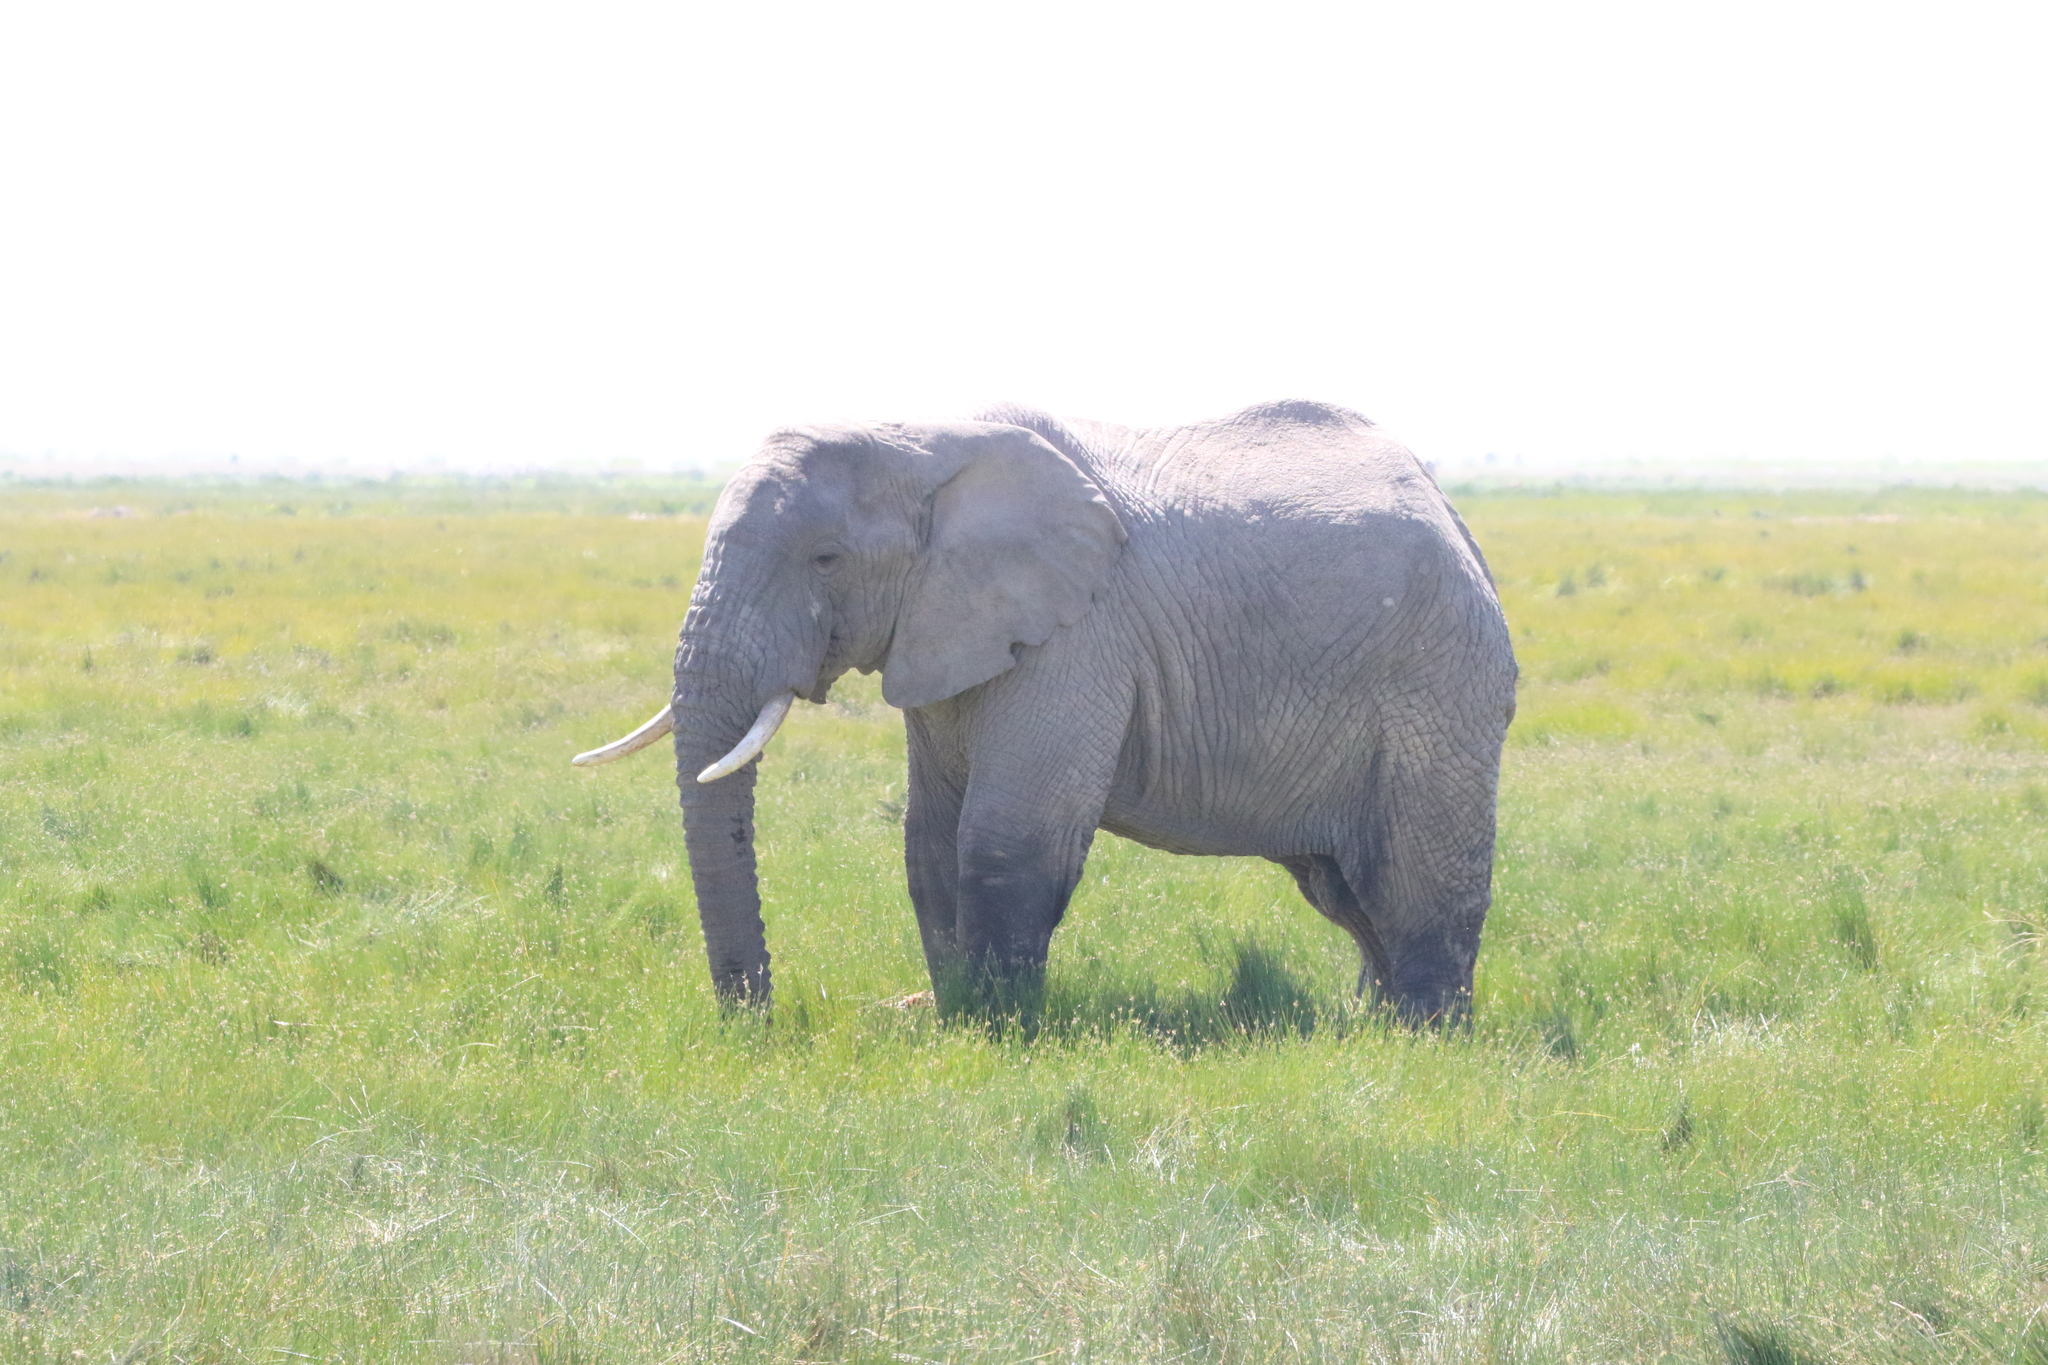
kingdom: Animalia
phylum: Chordata
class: Mammalia
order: Proboscidea
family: Elephantidae
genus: Loxodonta
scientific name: Loxodonta africana
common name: African elephant
